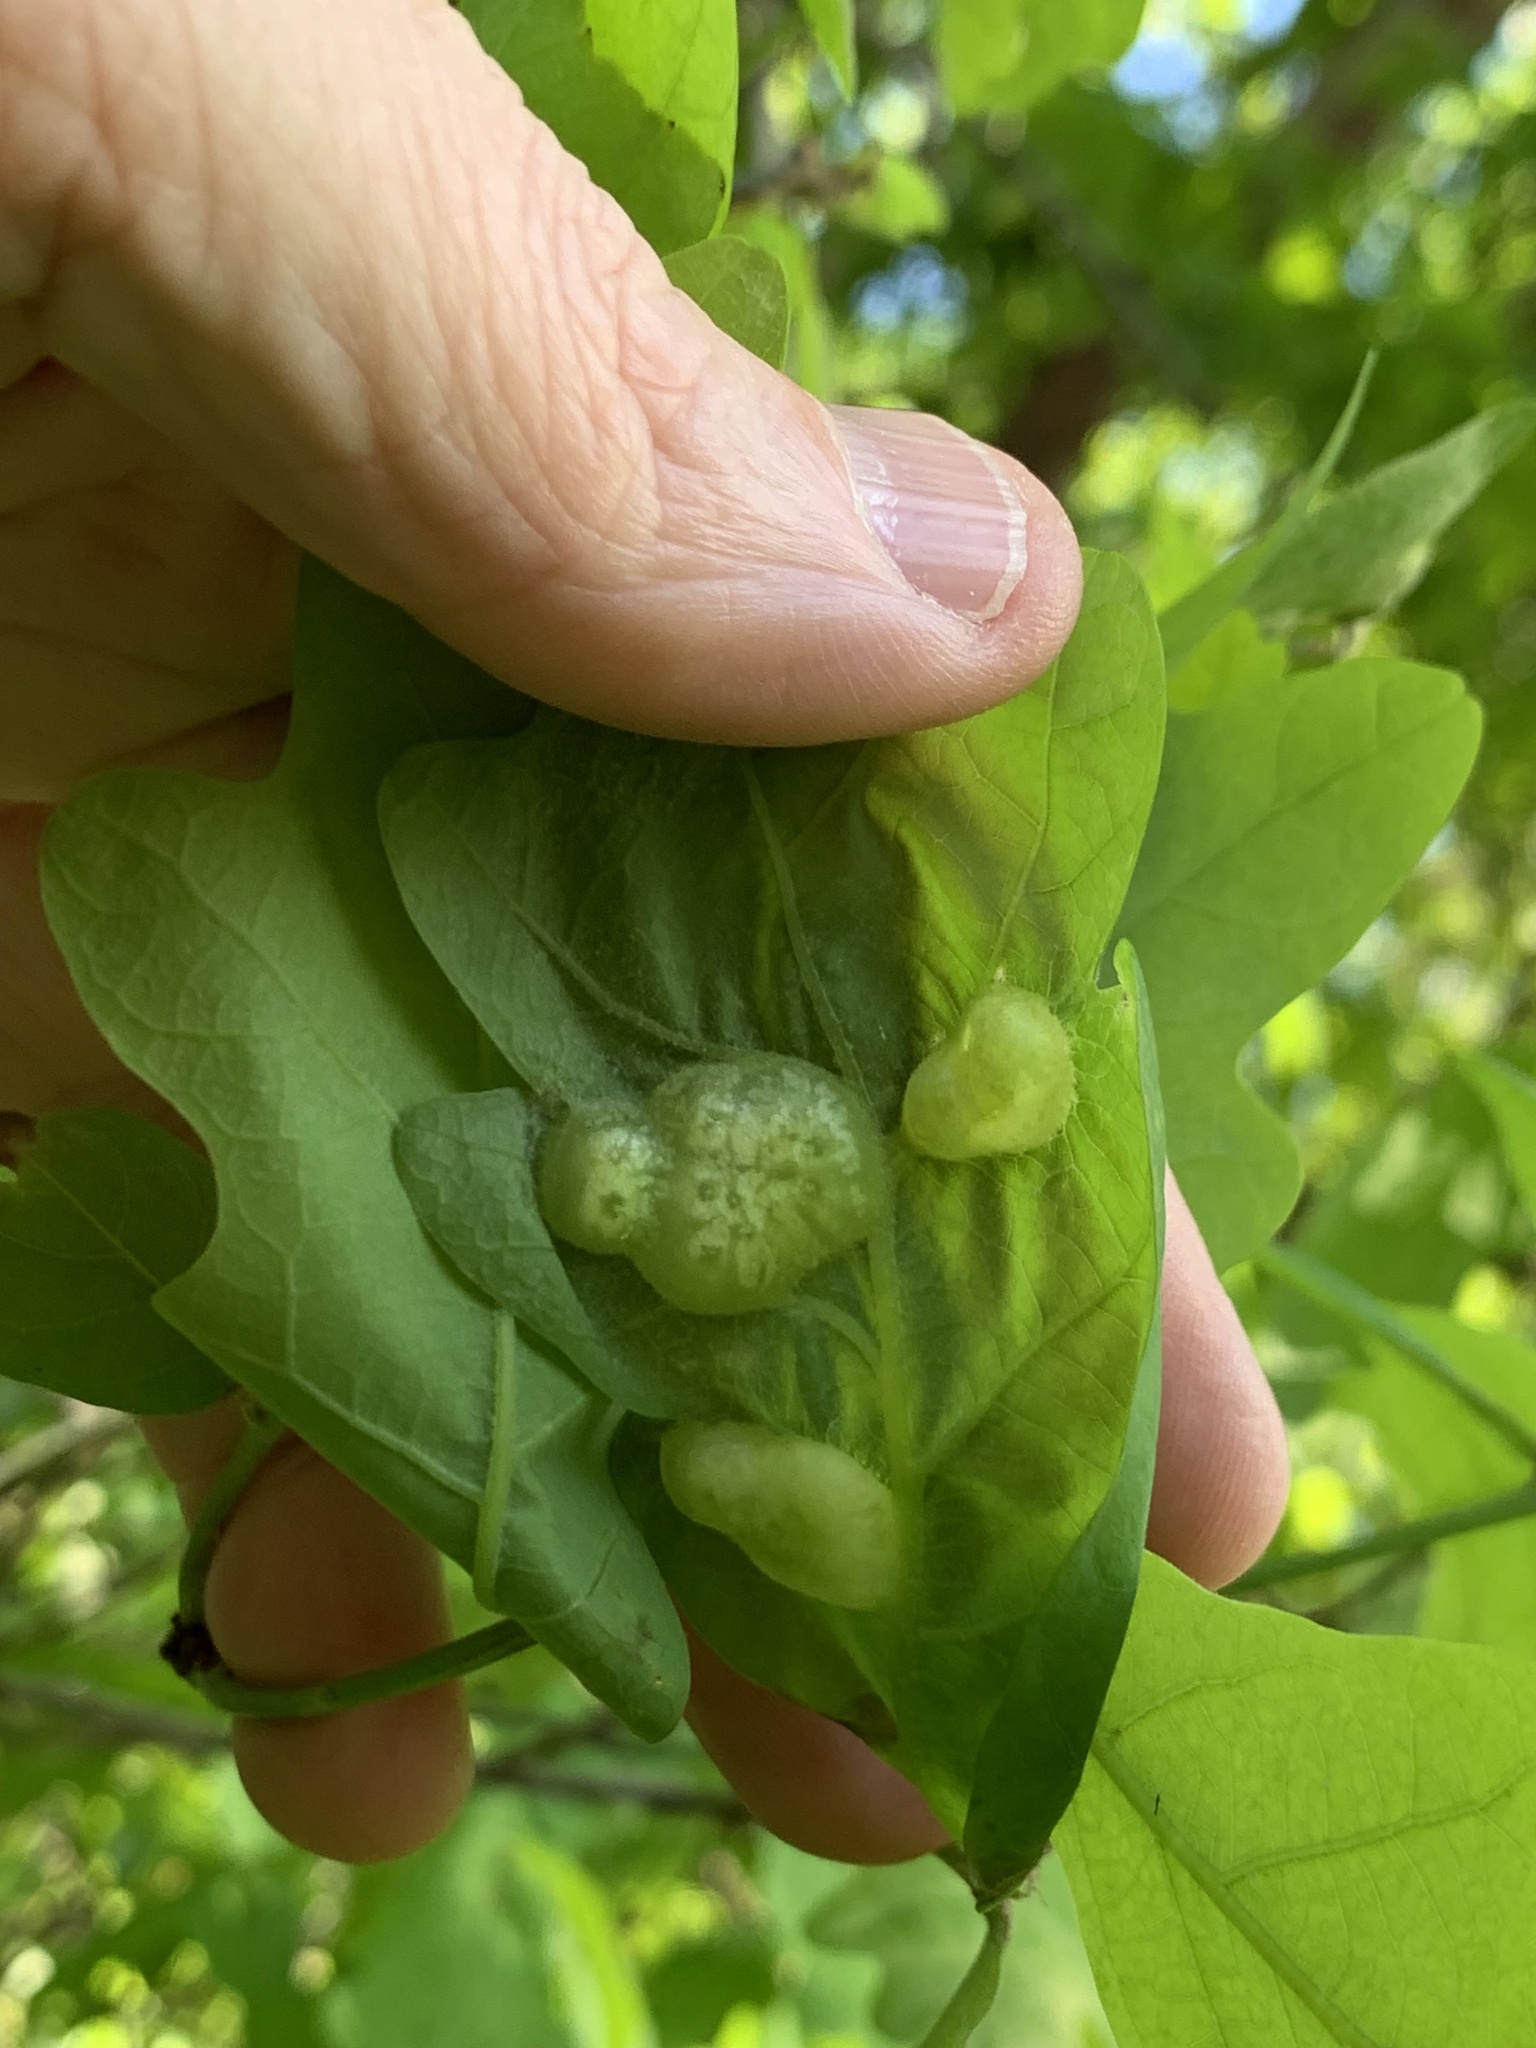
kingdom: Animalia
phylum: Arthropoda
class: Insecta
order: Hymenoptera
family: Cynipidae
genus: Neuroterus
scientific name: Neuroterus quercusirregularis
